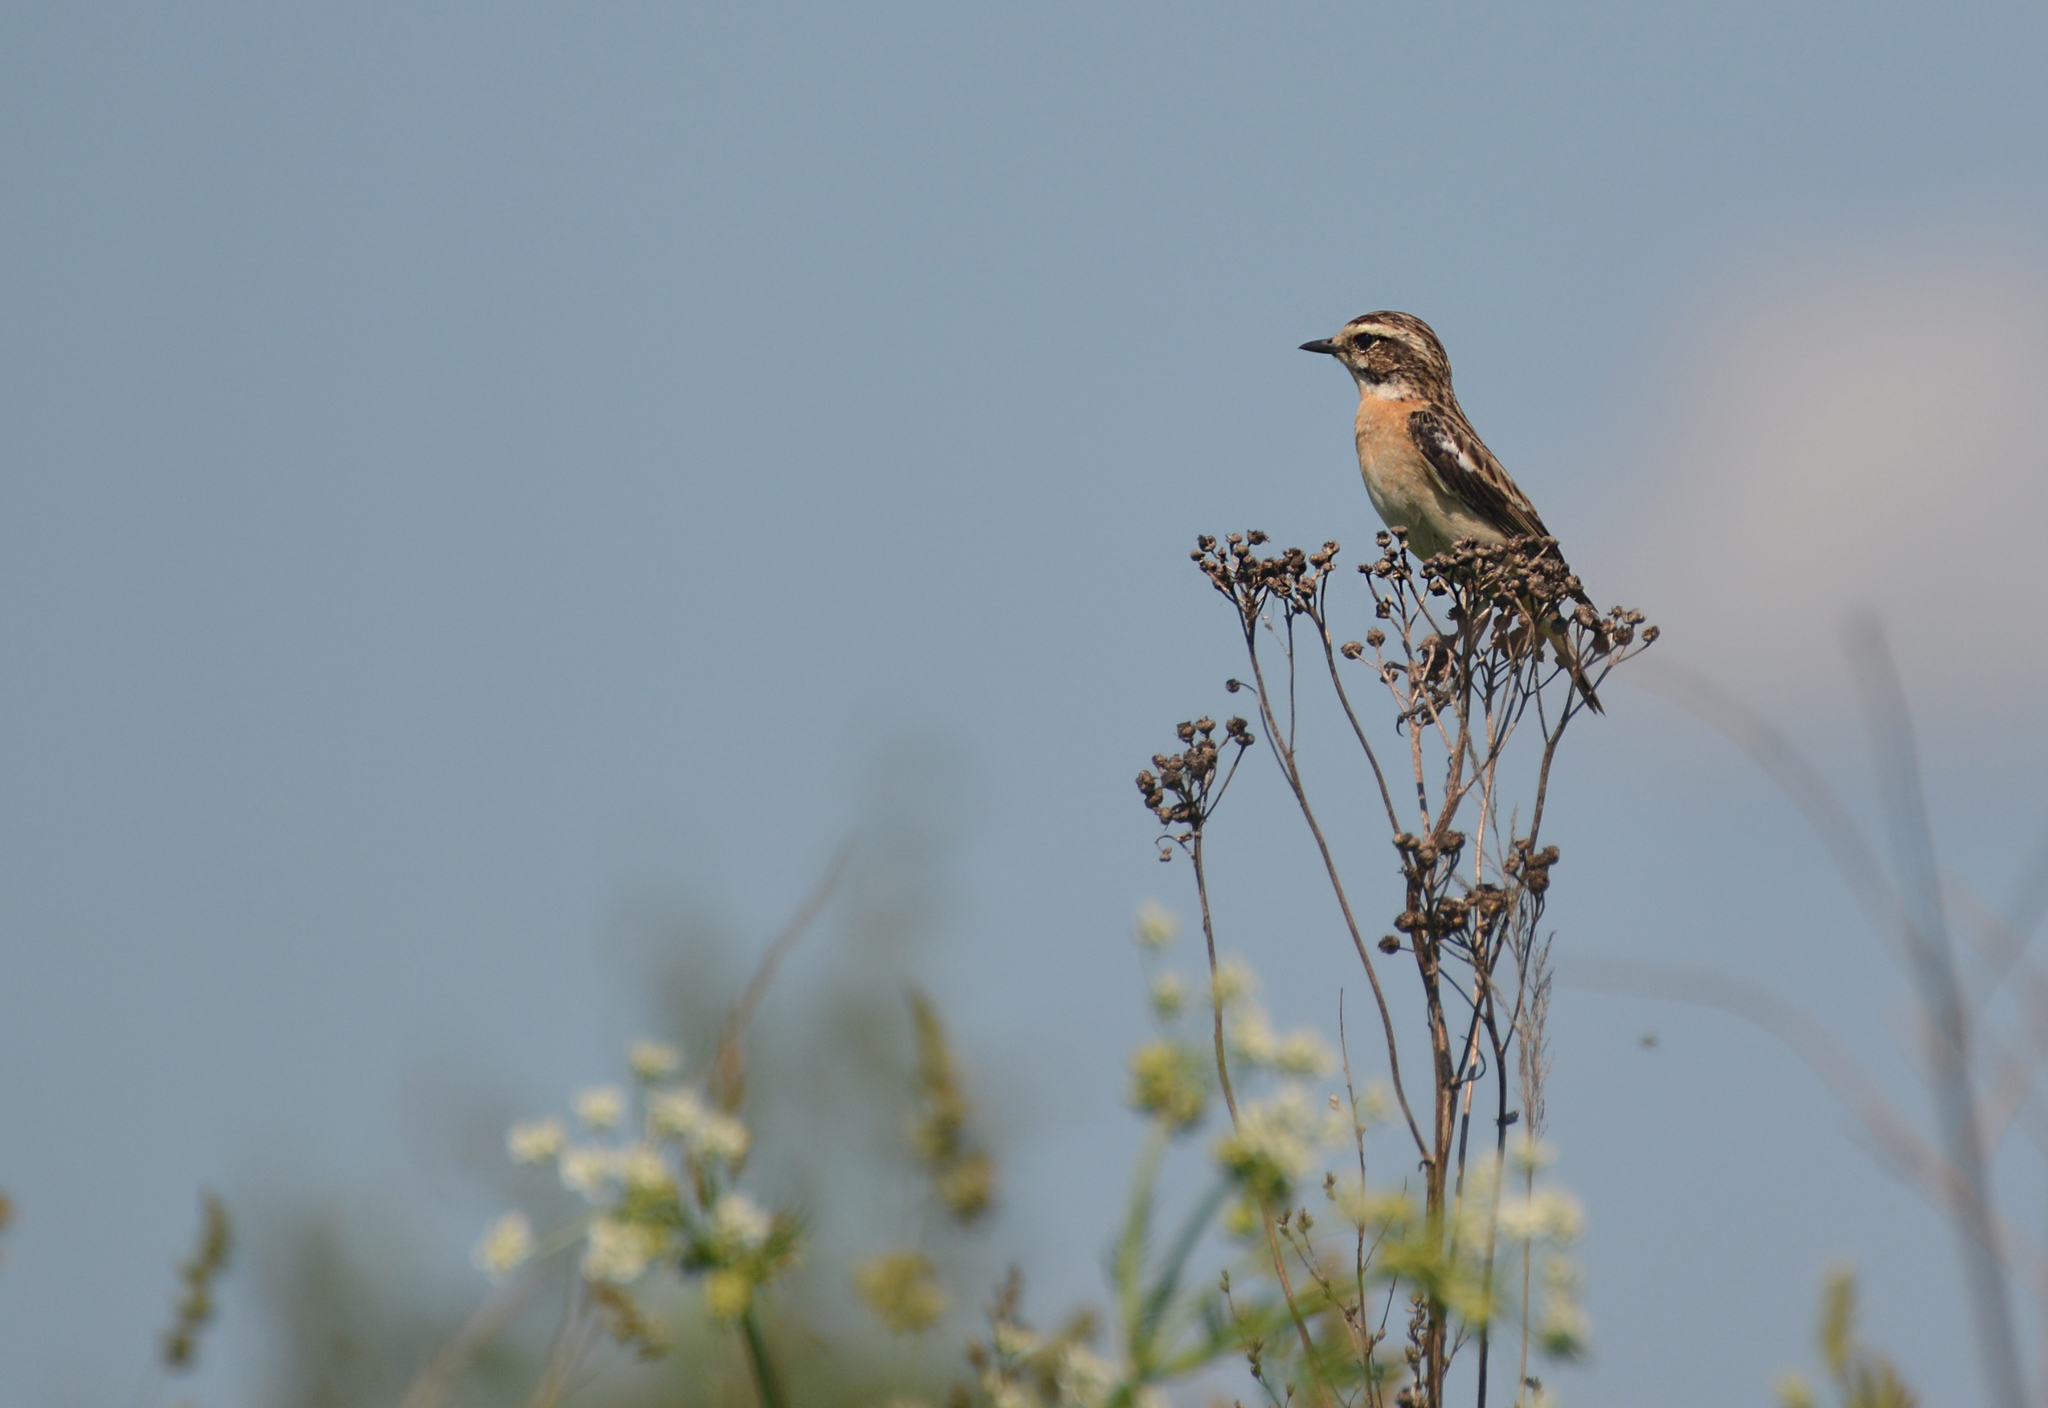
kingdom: Animalia
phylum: Chordata
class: Aves
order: Passeriformes
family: Muscicapidae
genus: Saxicola
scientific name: Saxicola rubetra
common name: Whinchat
